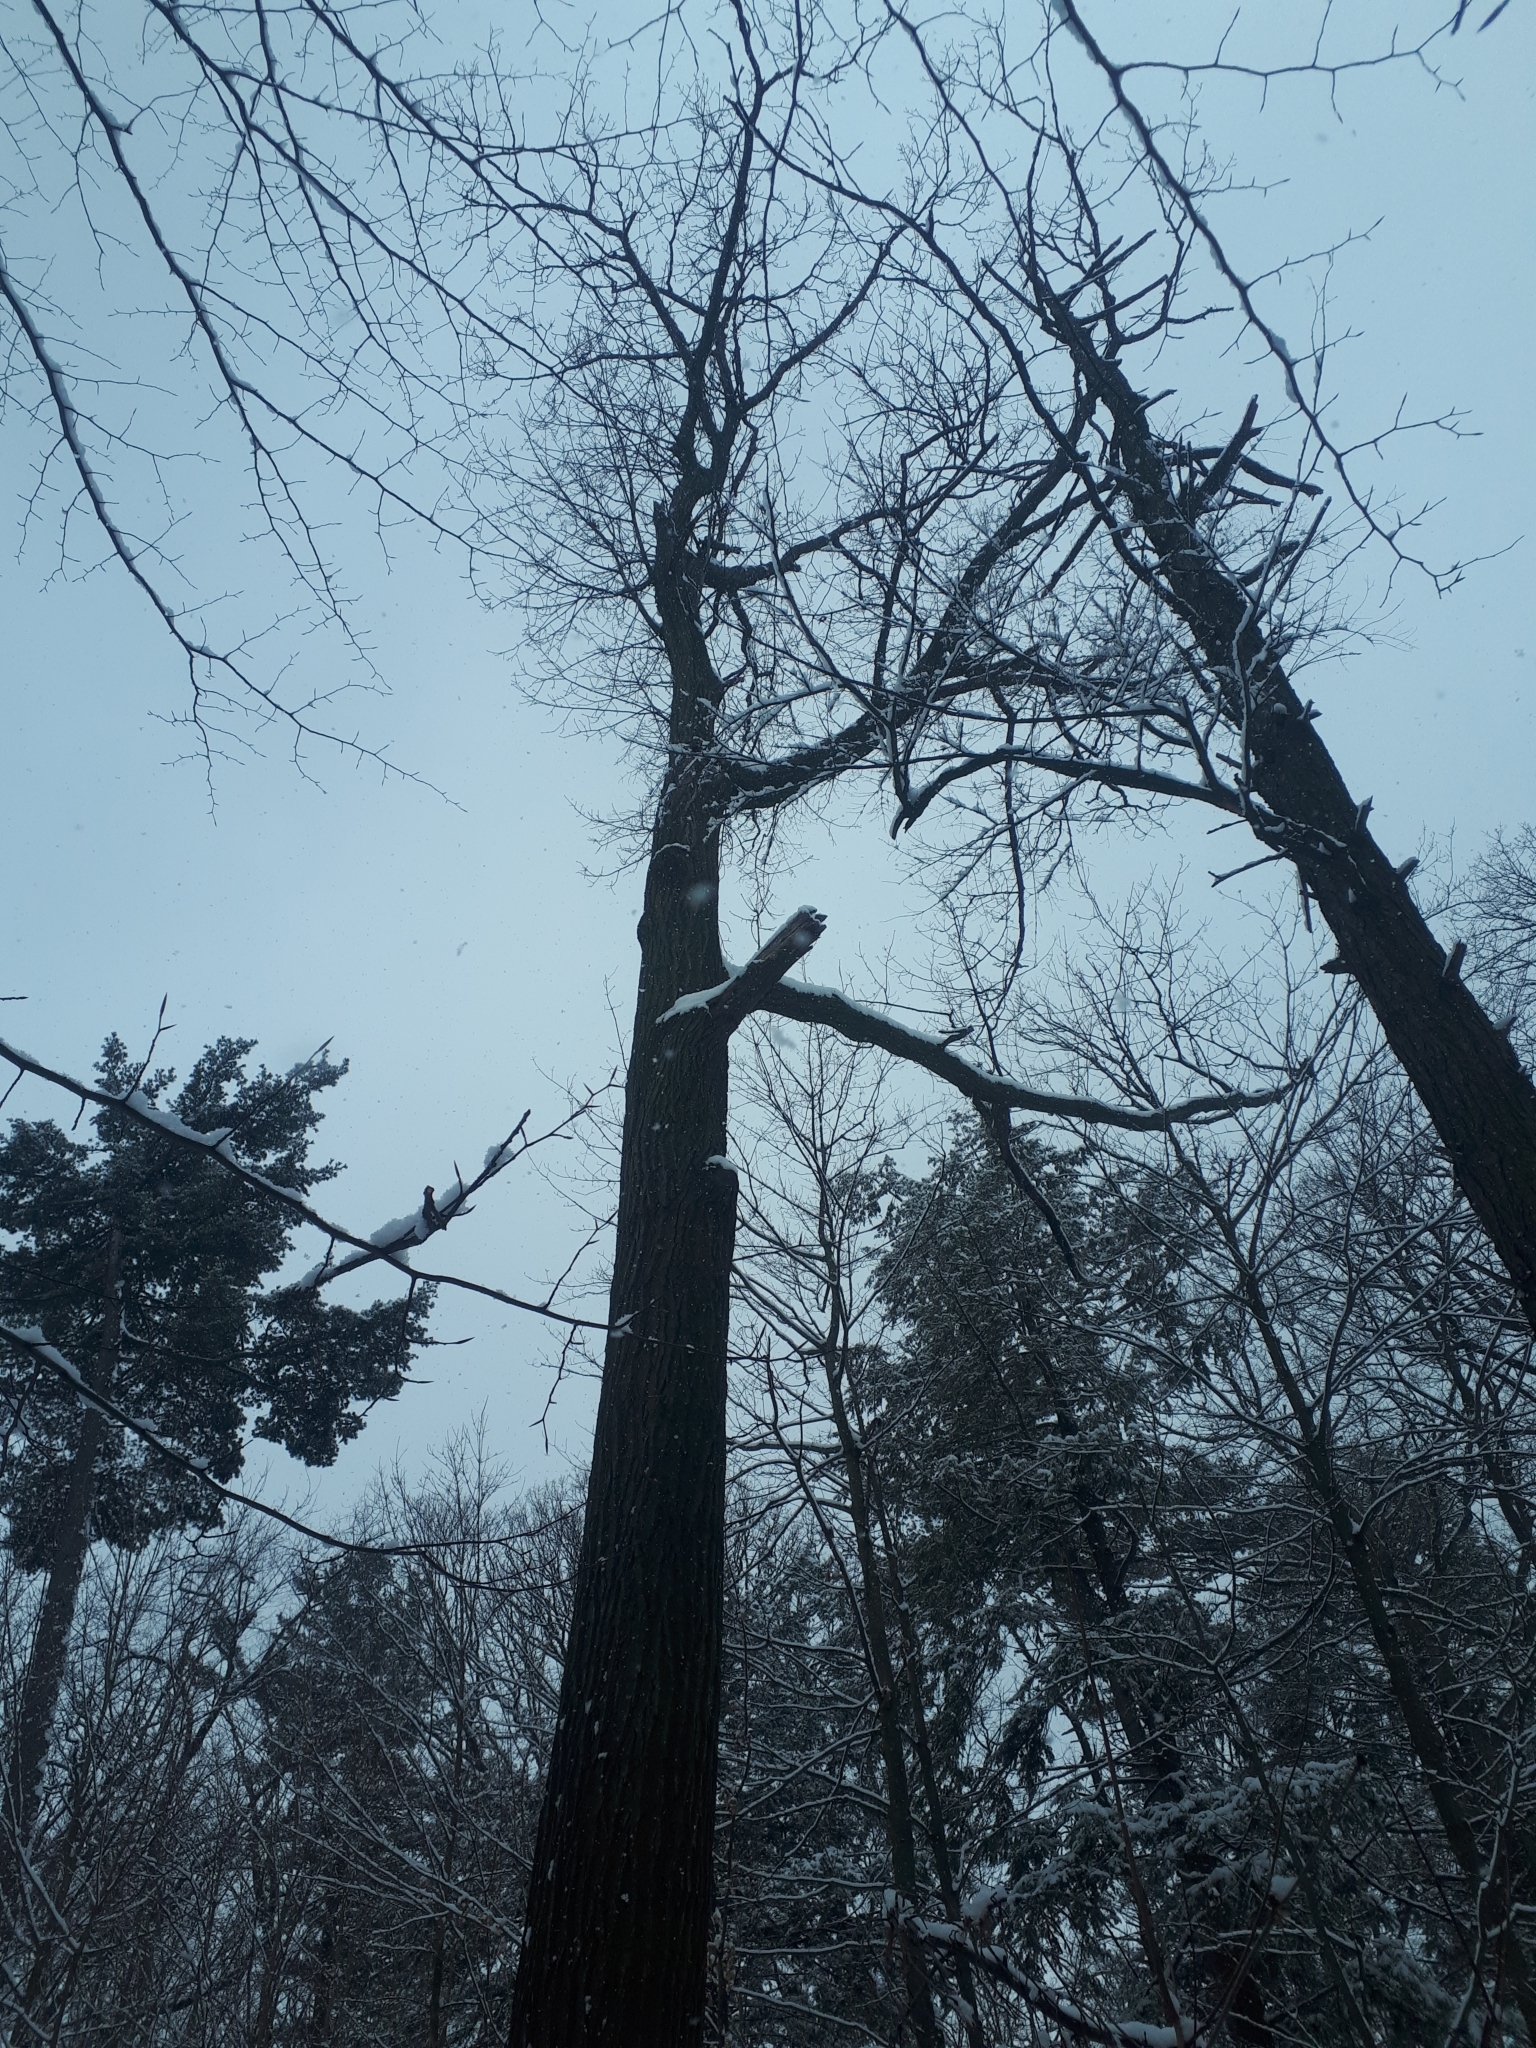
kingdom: Plantae
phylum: Tracheophyta
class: Magnoliopsida
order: Fagales
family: Fagaceae
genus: Quercus
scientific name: Quercus rubra
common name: Red oak
